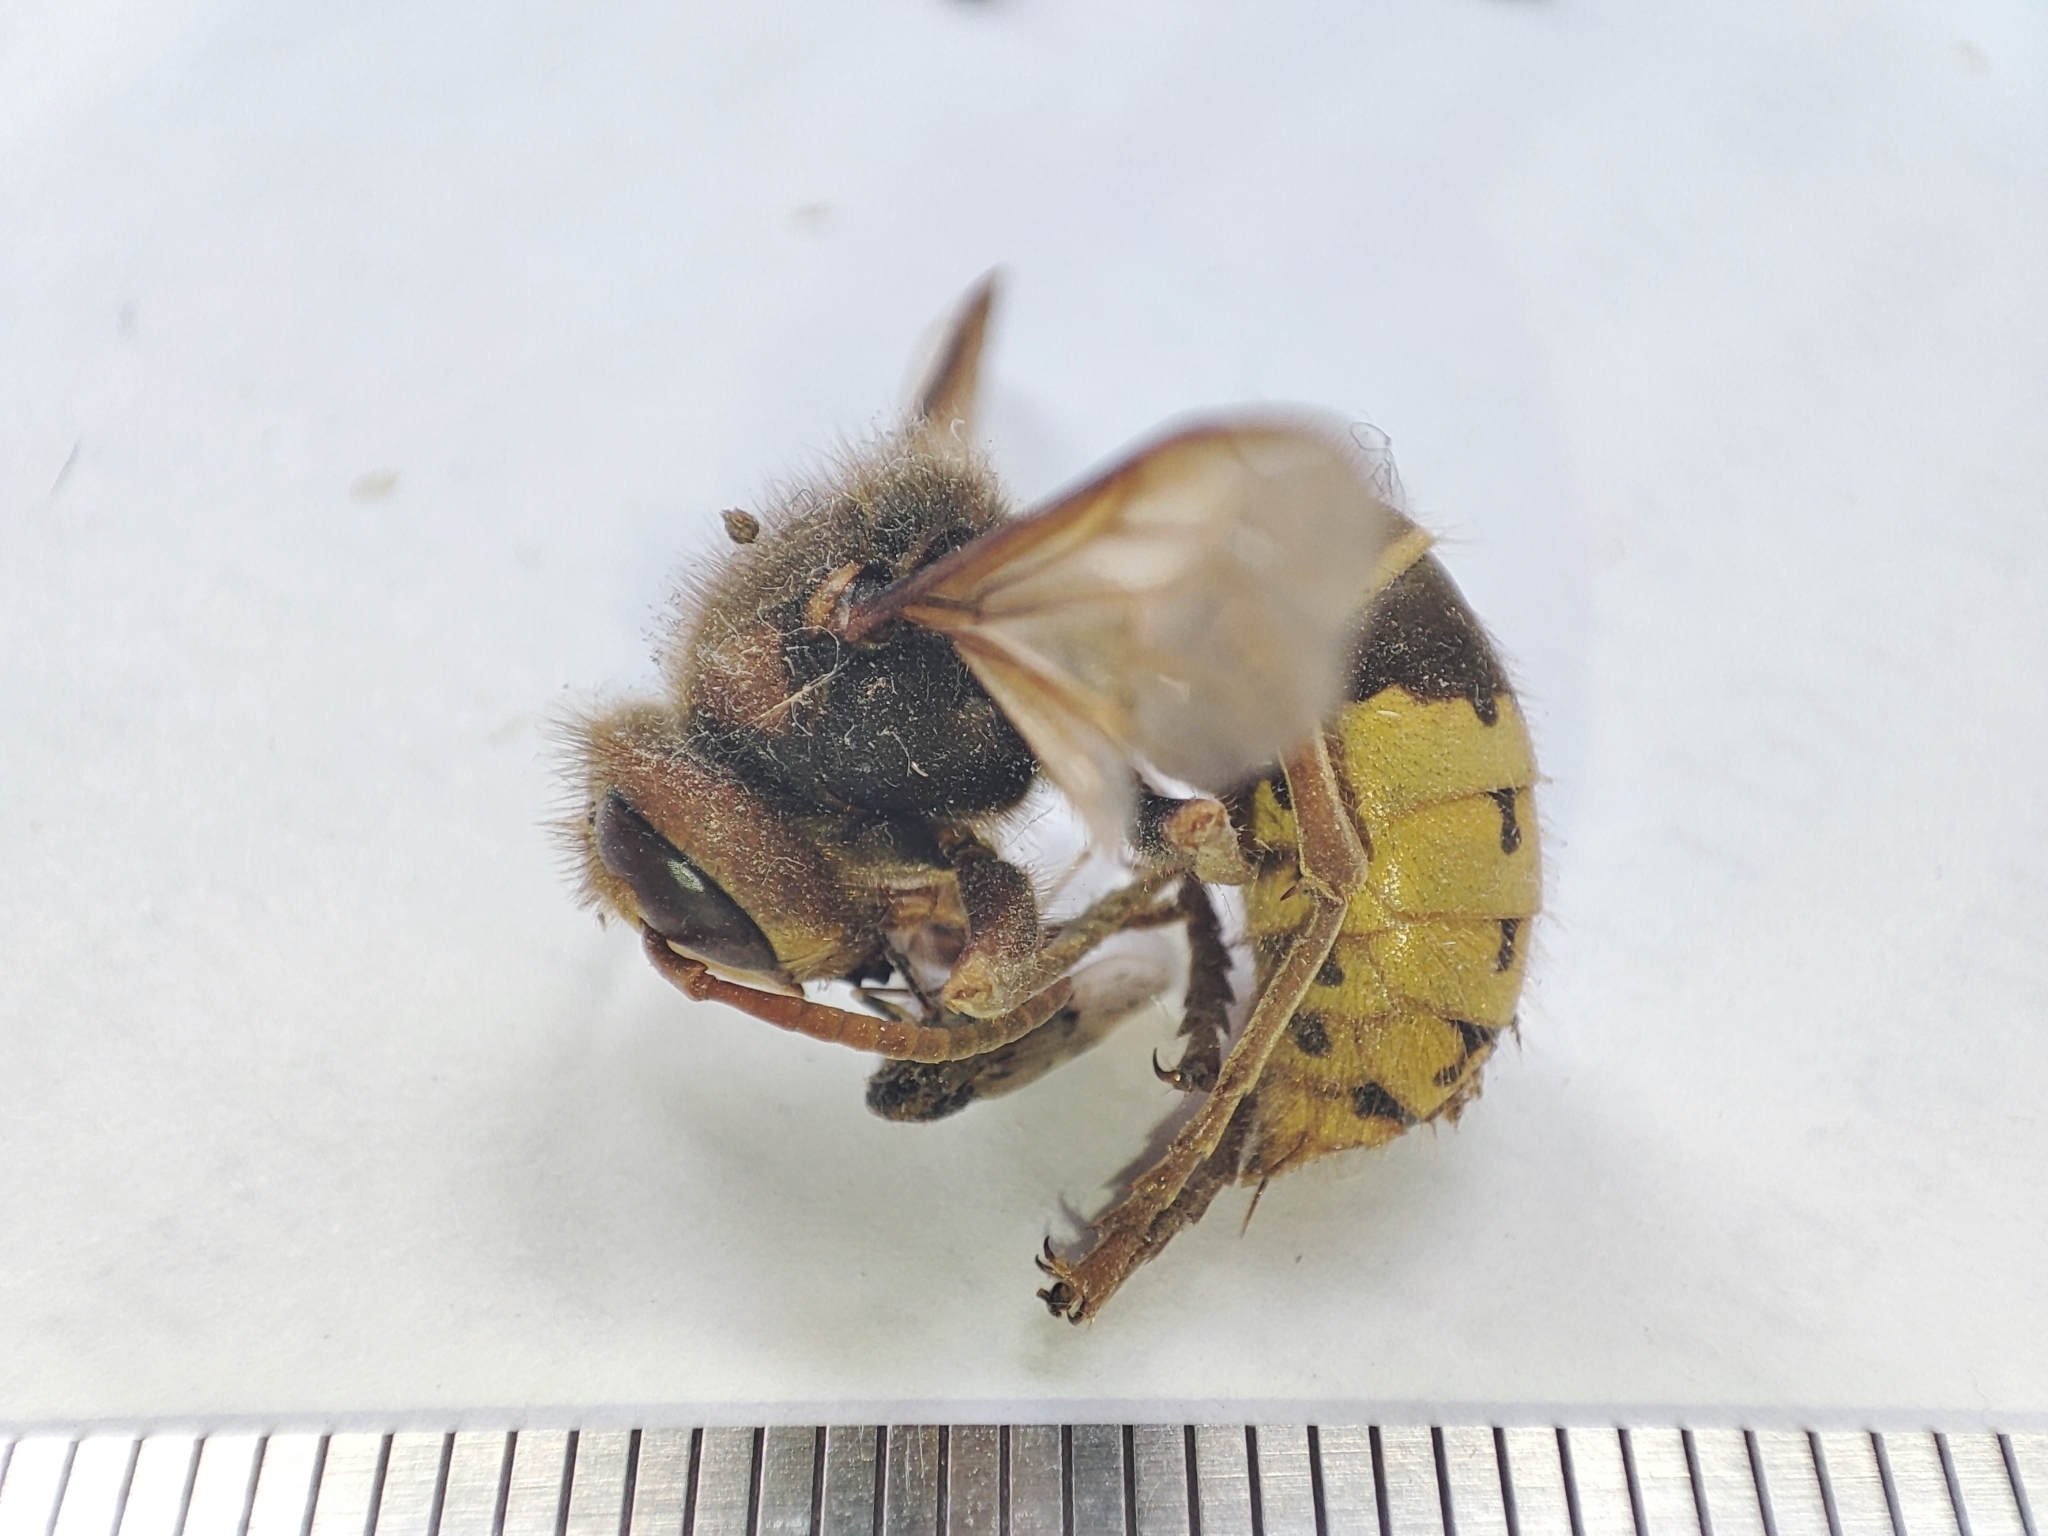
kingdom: Animalia
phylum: Arthropoda
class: Insecta
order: Hymenoptera
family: Vespidae
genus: Vespa
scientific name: Vespa crabro
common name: Hornet
